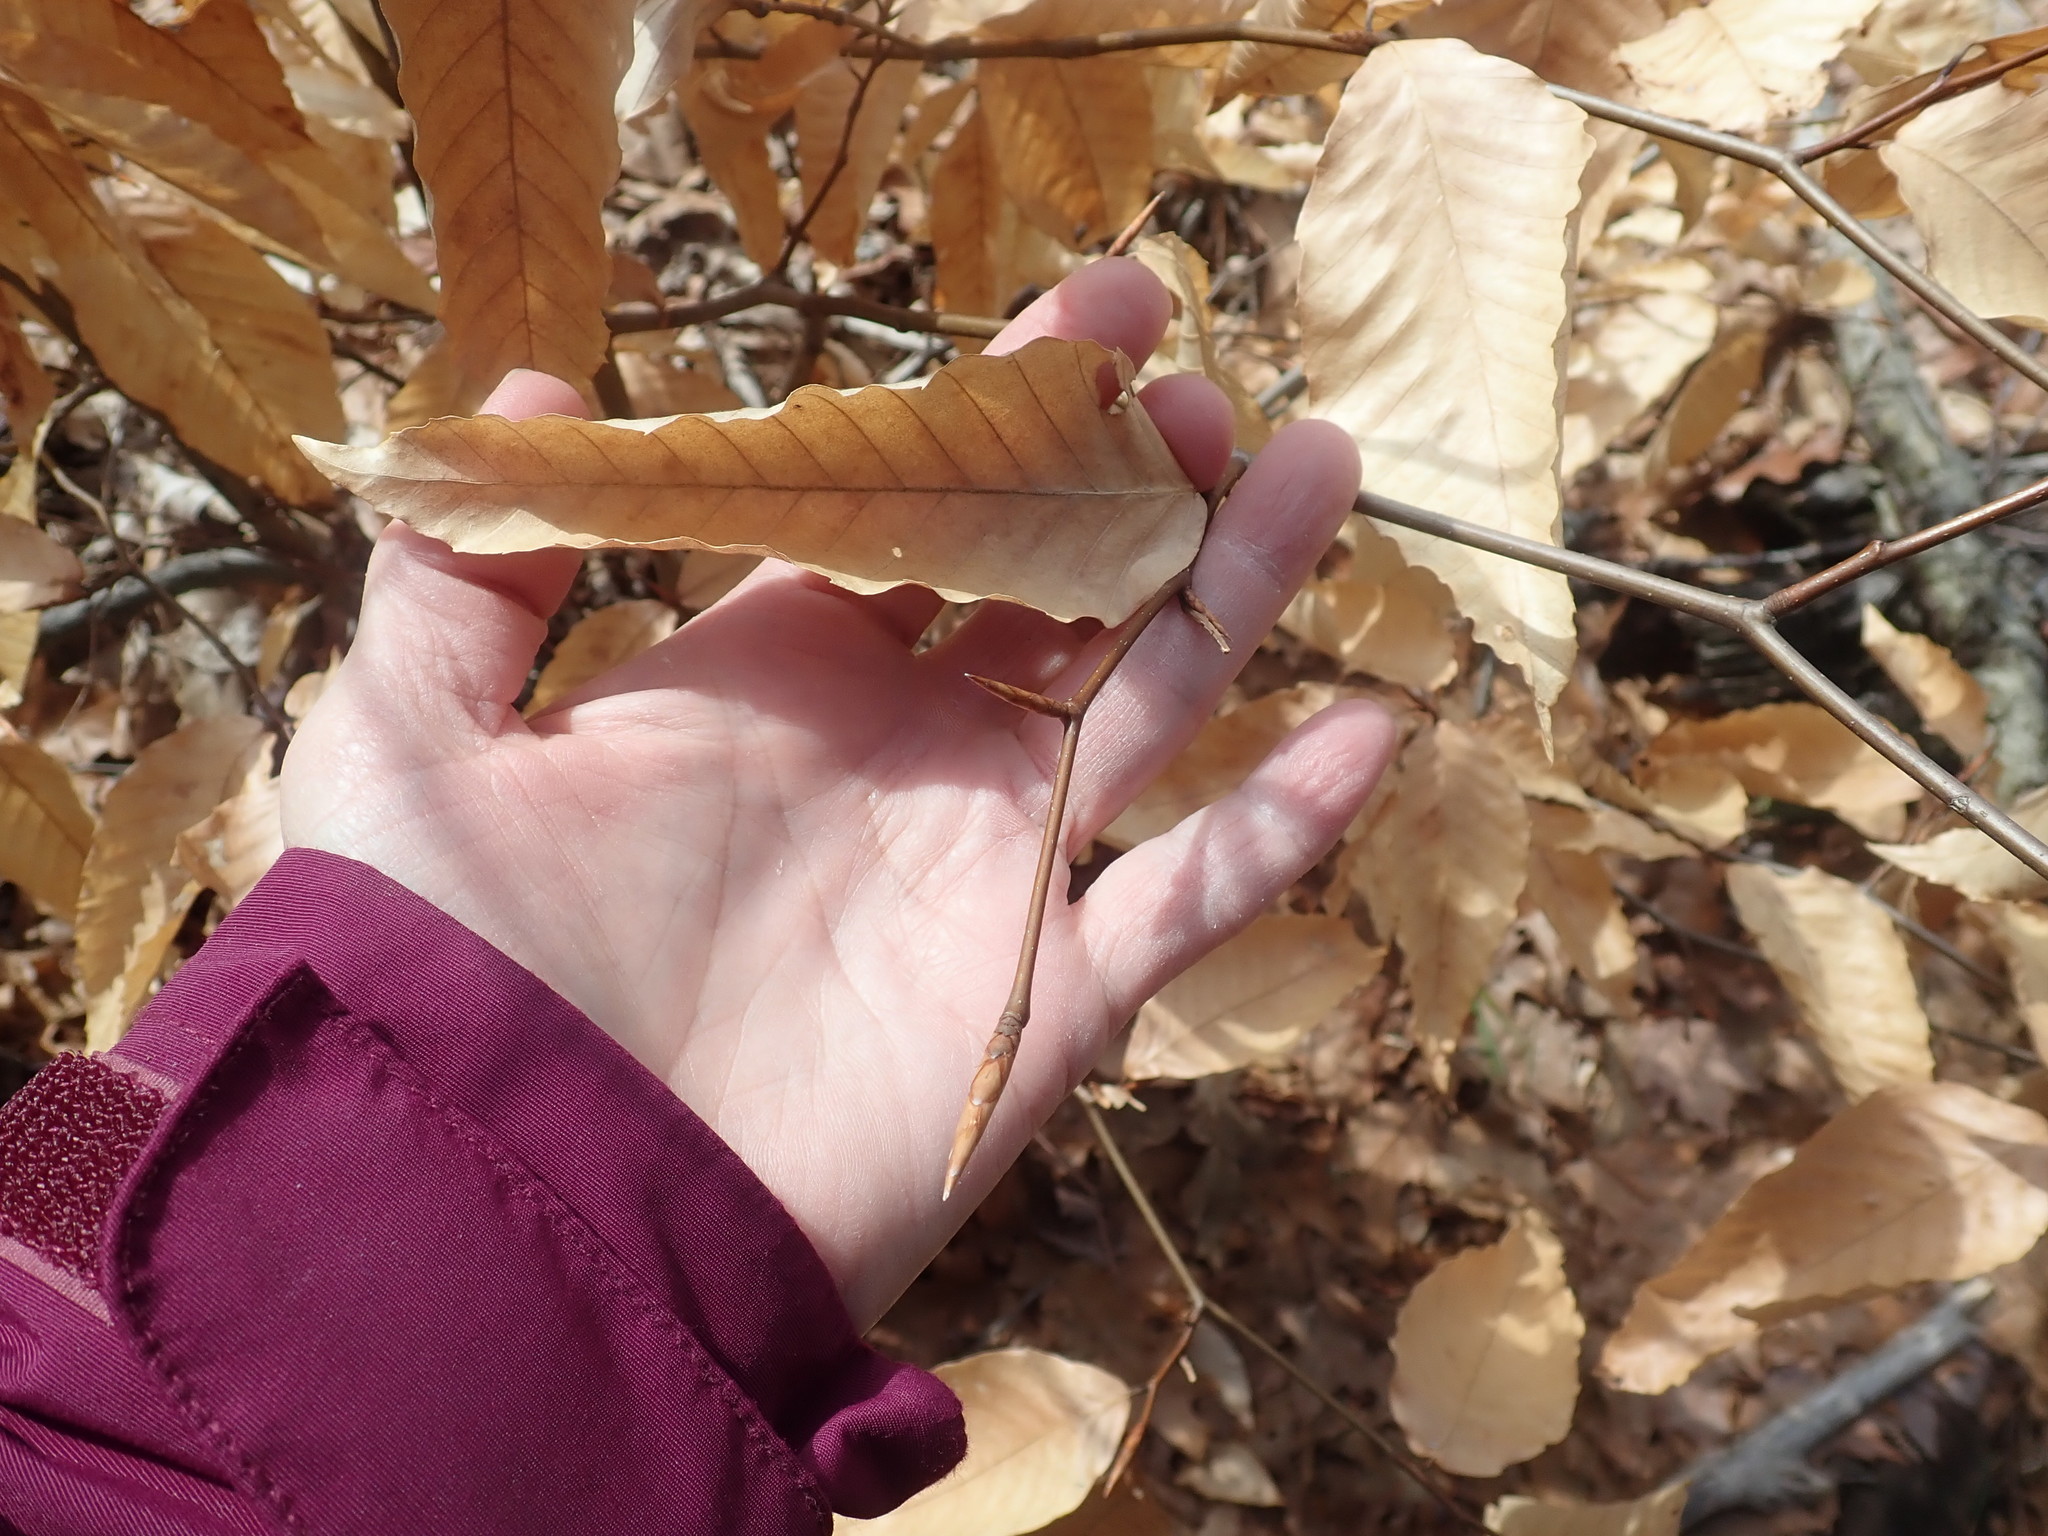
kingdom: Plantae
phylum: Tracheophyta
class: Magnoliopsida
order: Fagales
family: Fagaceae
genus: Fagus
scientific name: Fagus grandifolia
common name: American beech
